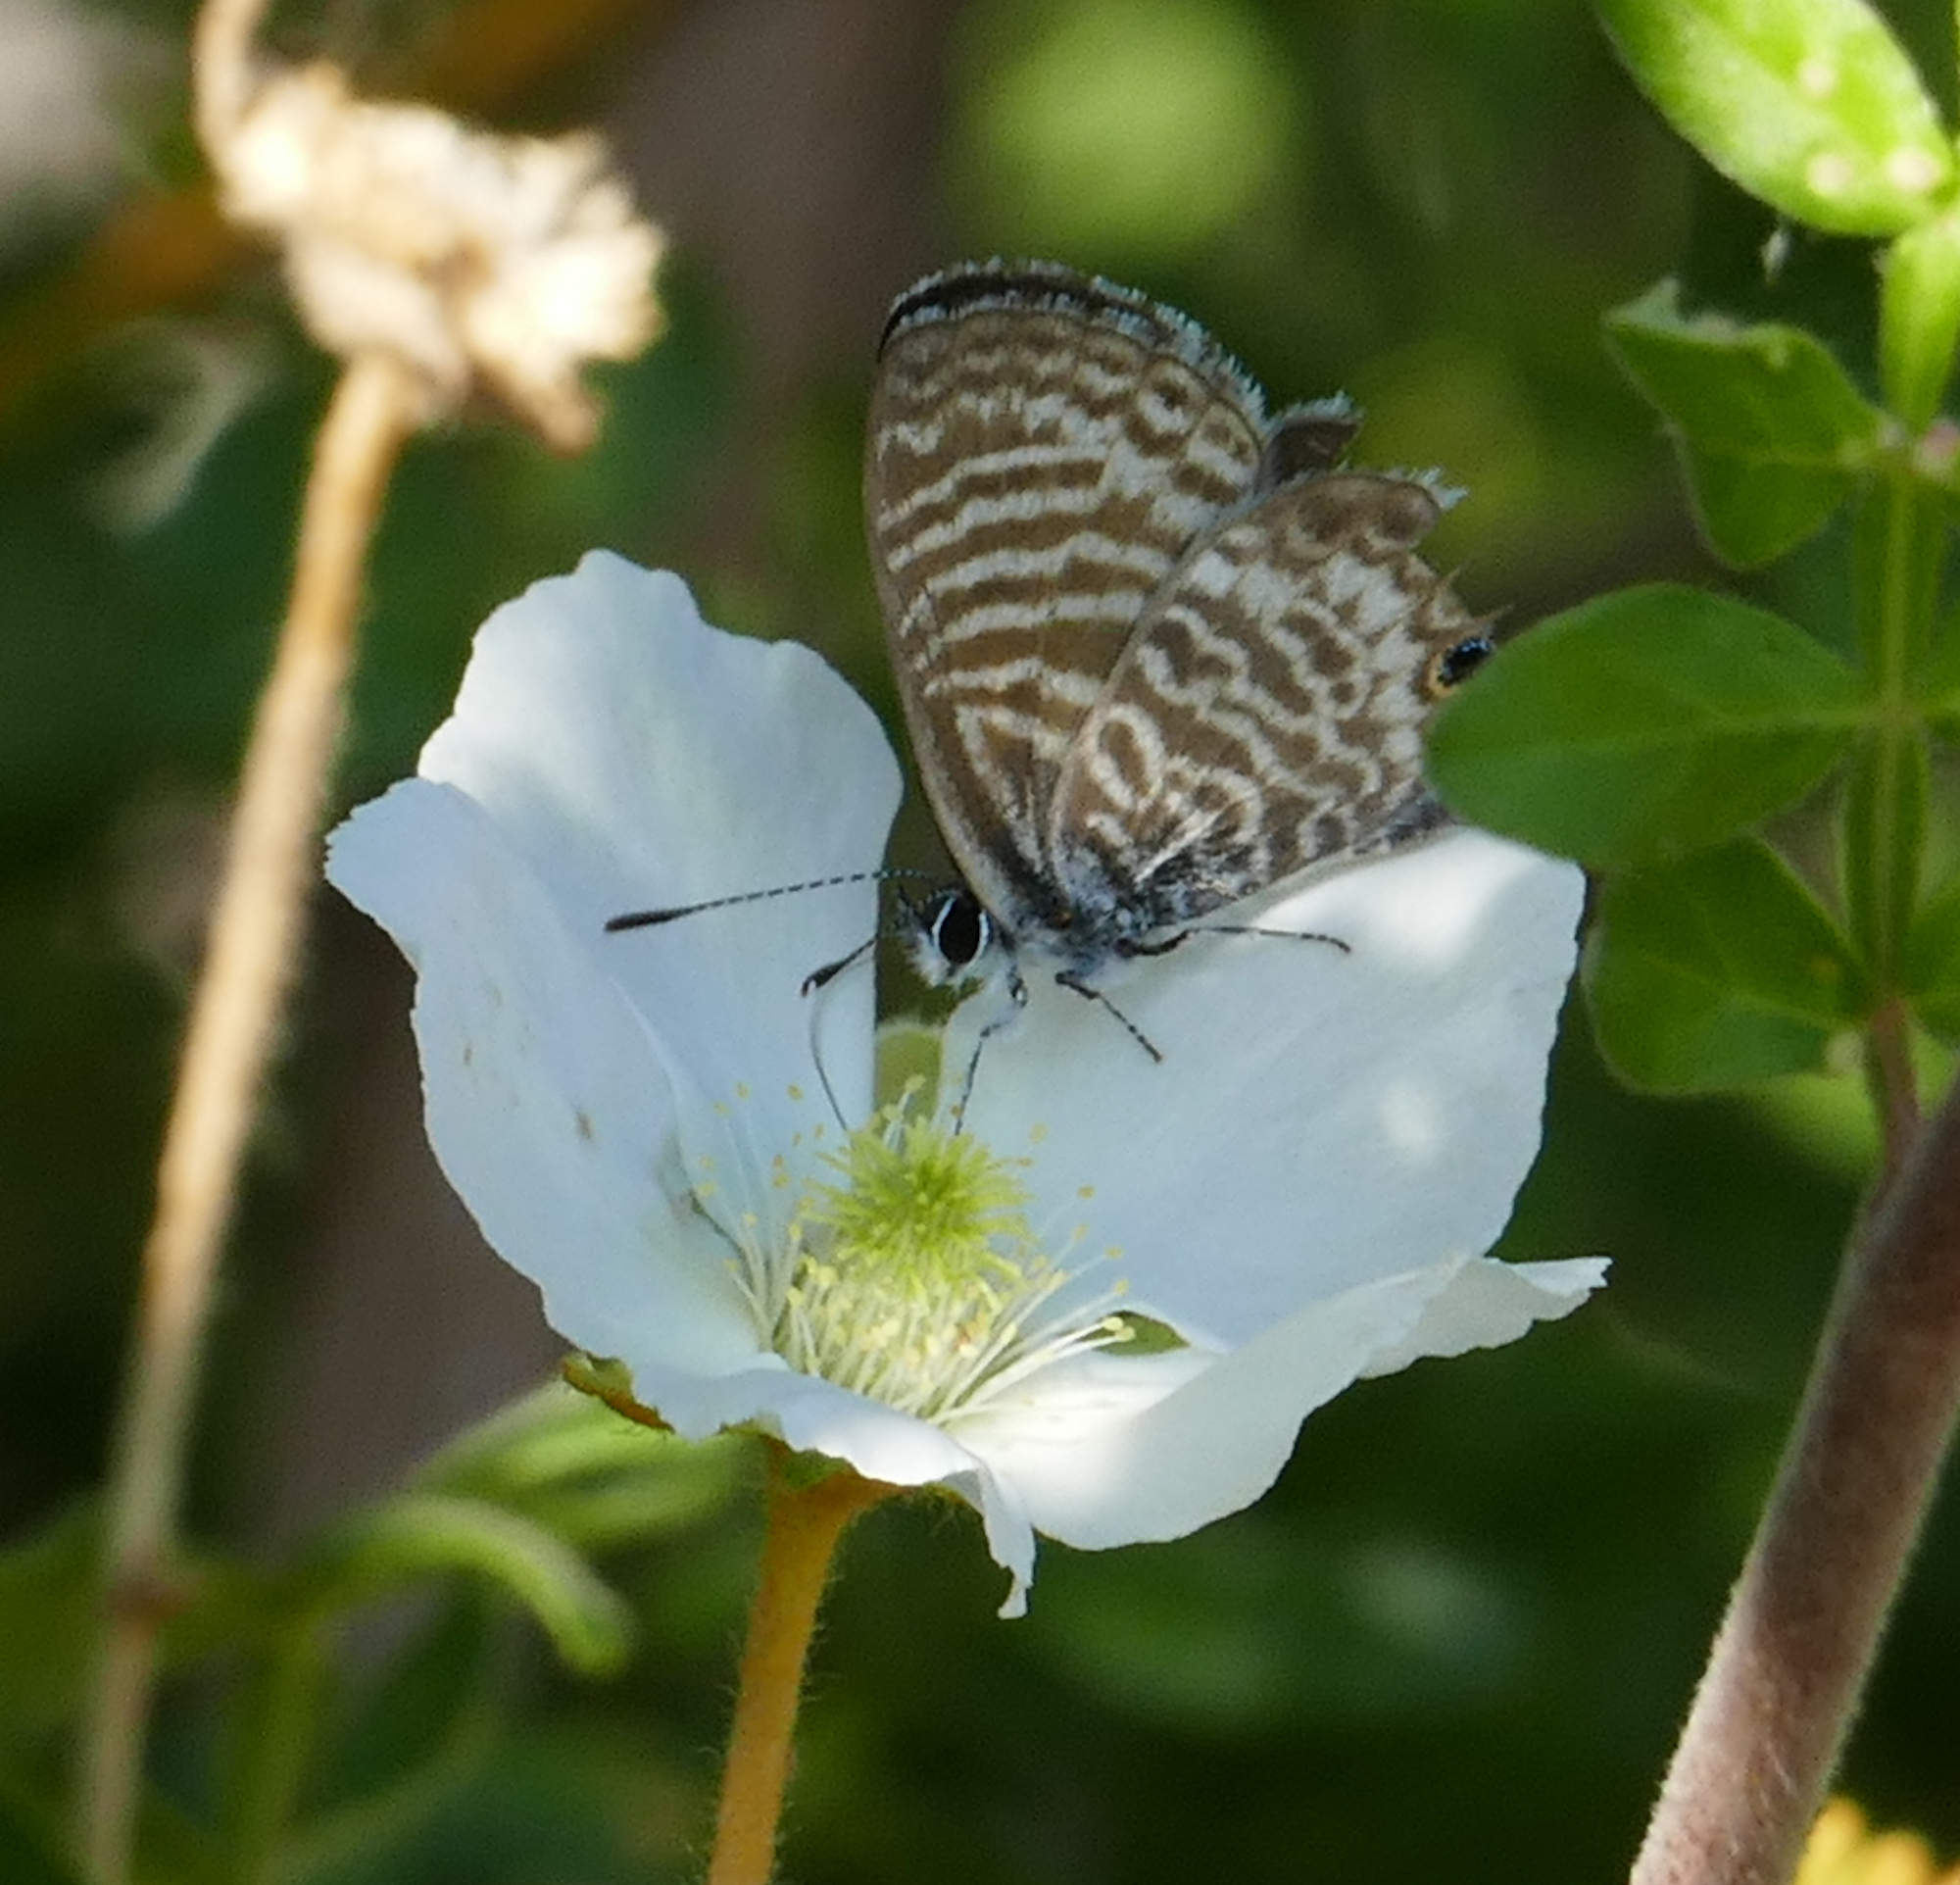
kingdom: Animalia
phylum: Arthropoda
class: Insecta
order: Lepidoptera
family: Lycaenidae
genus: Leptotes
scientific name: Leptotes marina
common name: Marine blue
